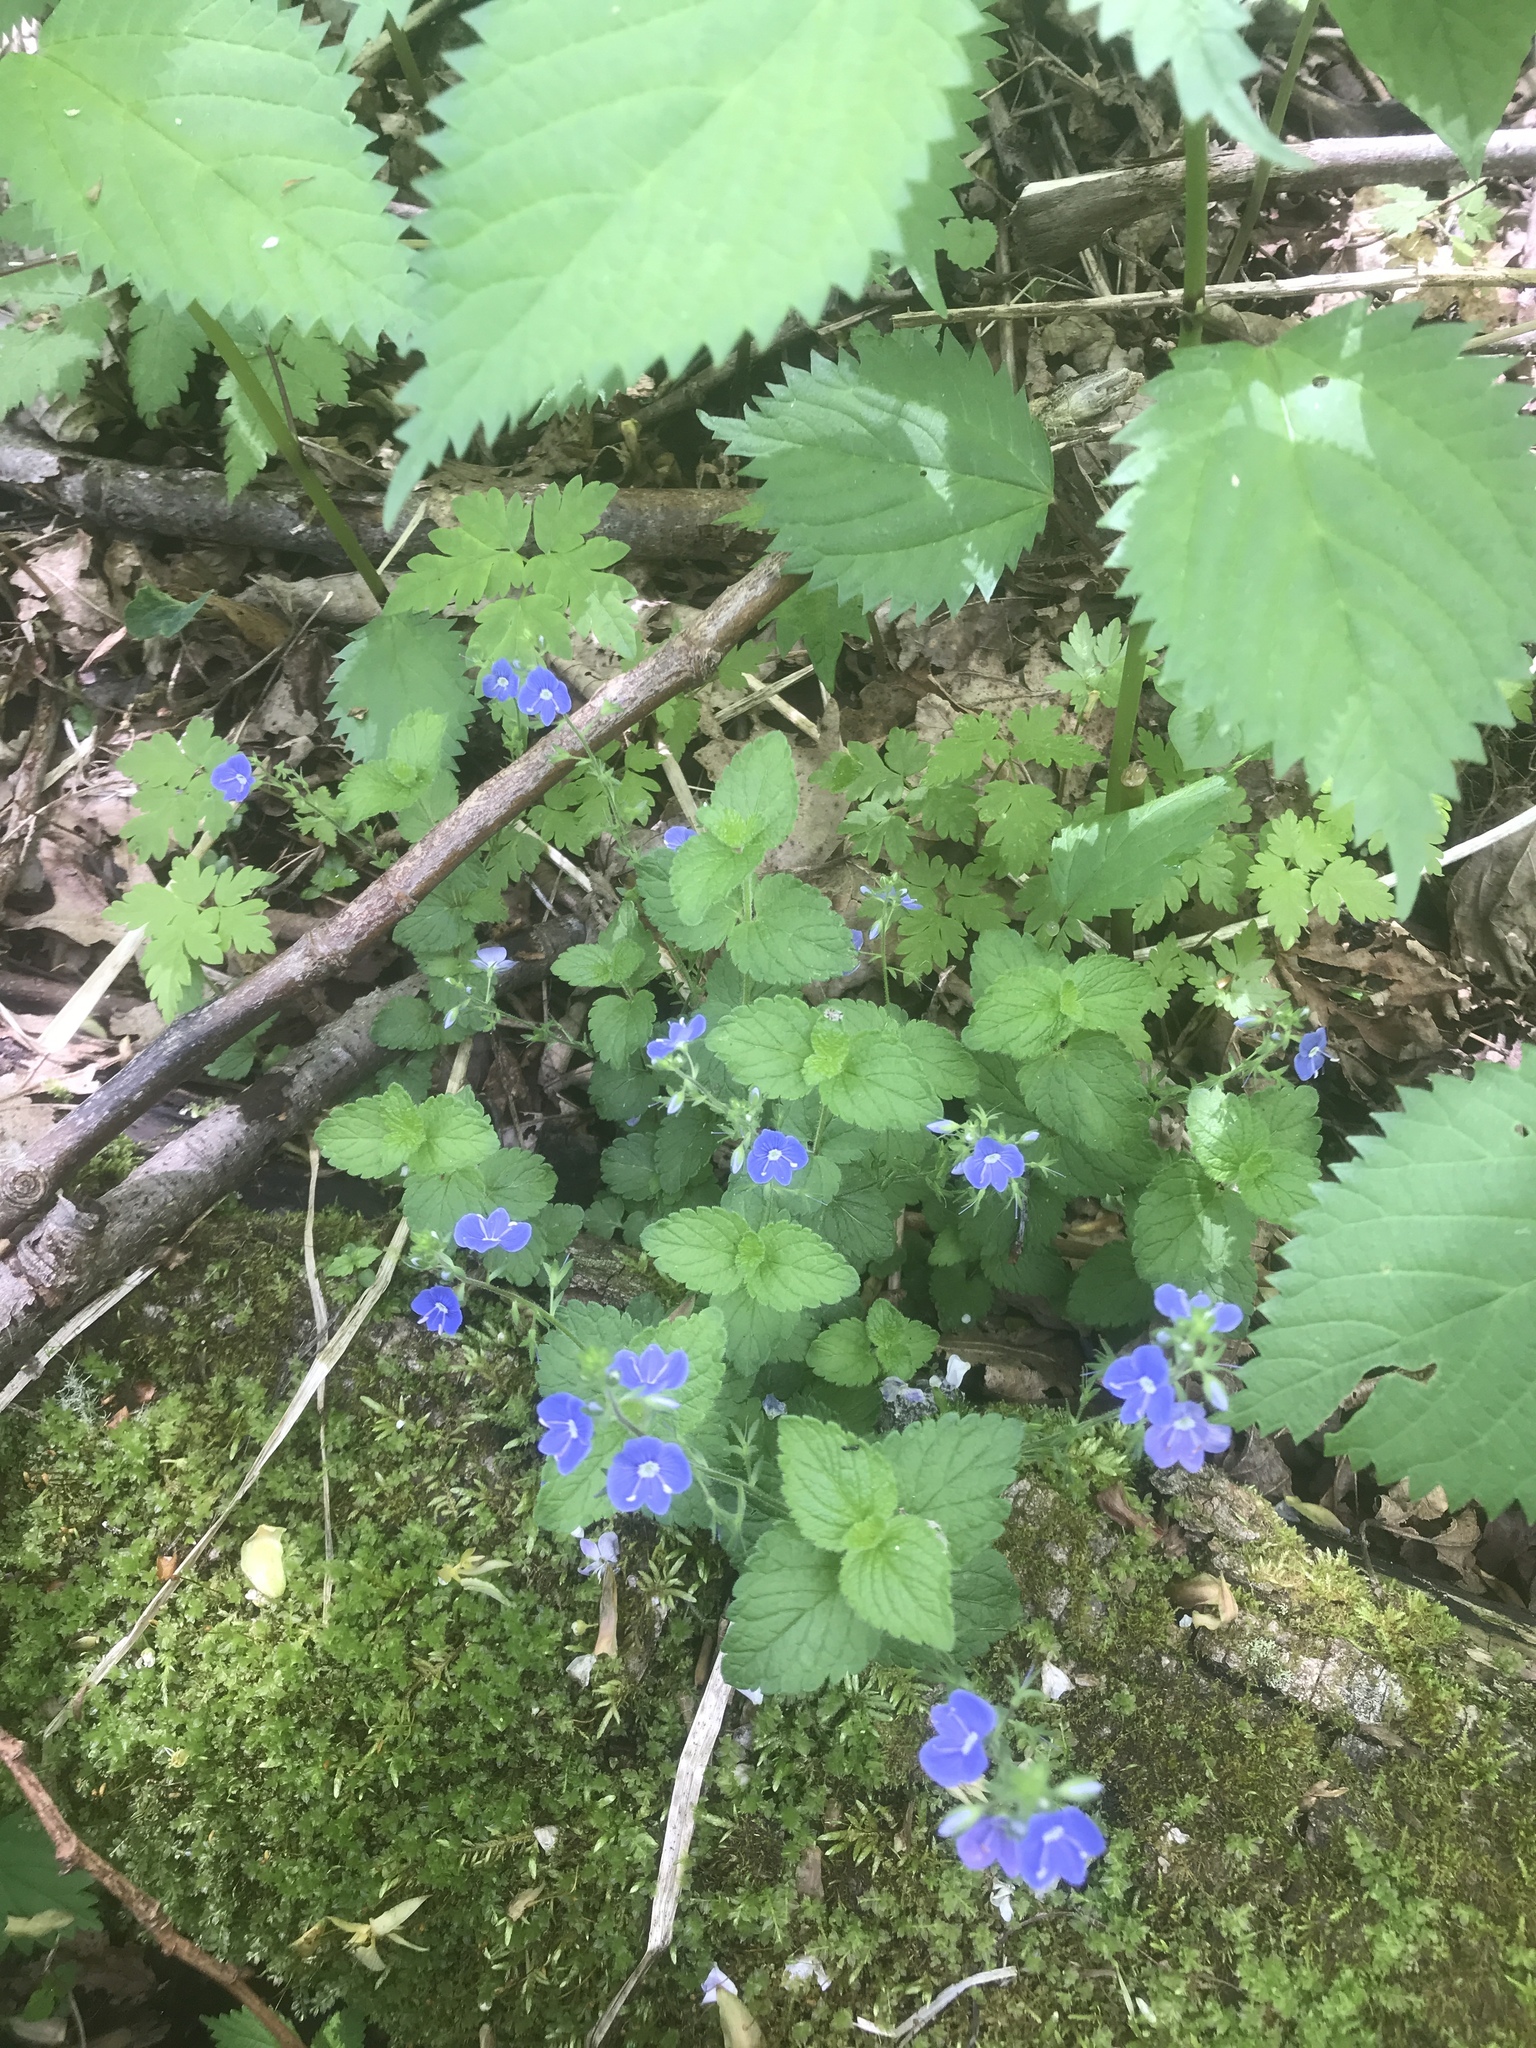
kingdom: Plantae
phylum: Tracheophyta
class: Magnoliopsida
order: Lamiales
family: Plantaginaceae
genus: Veronica
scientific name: Veronica chamaedrys
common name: Germander speedwell
